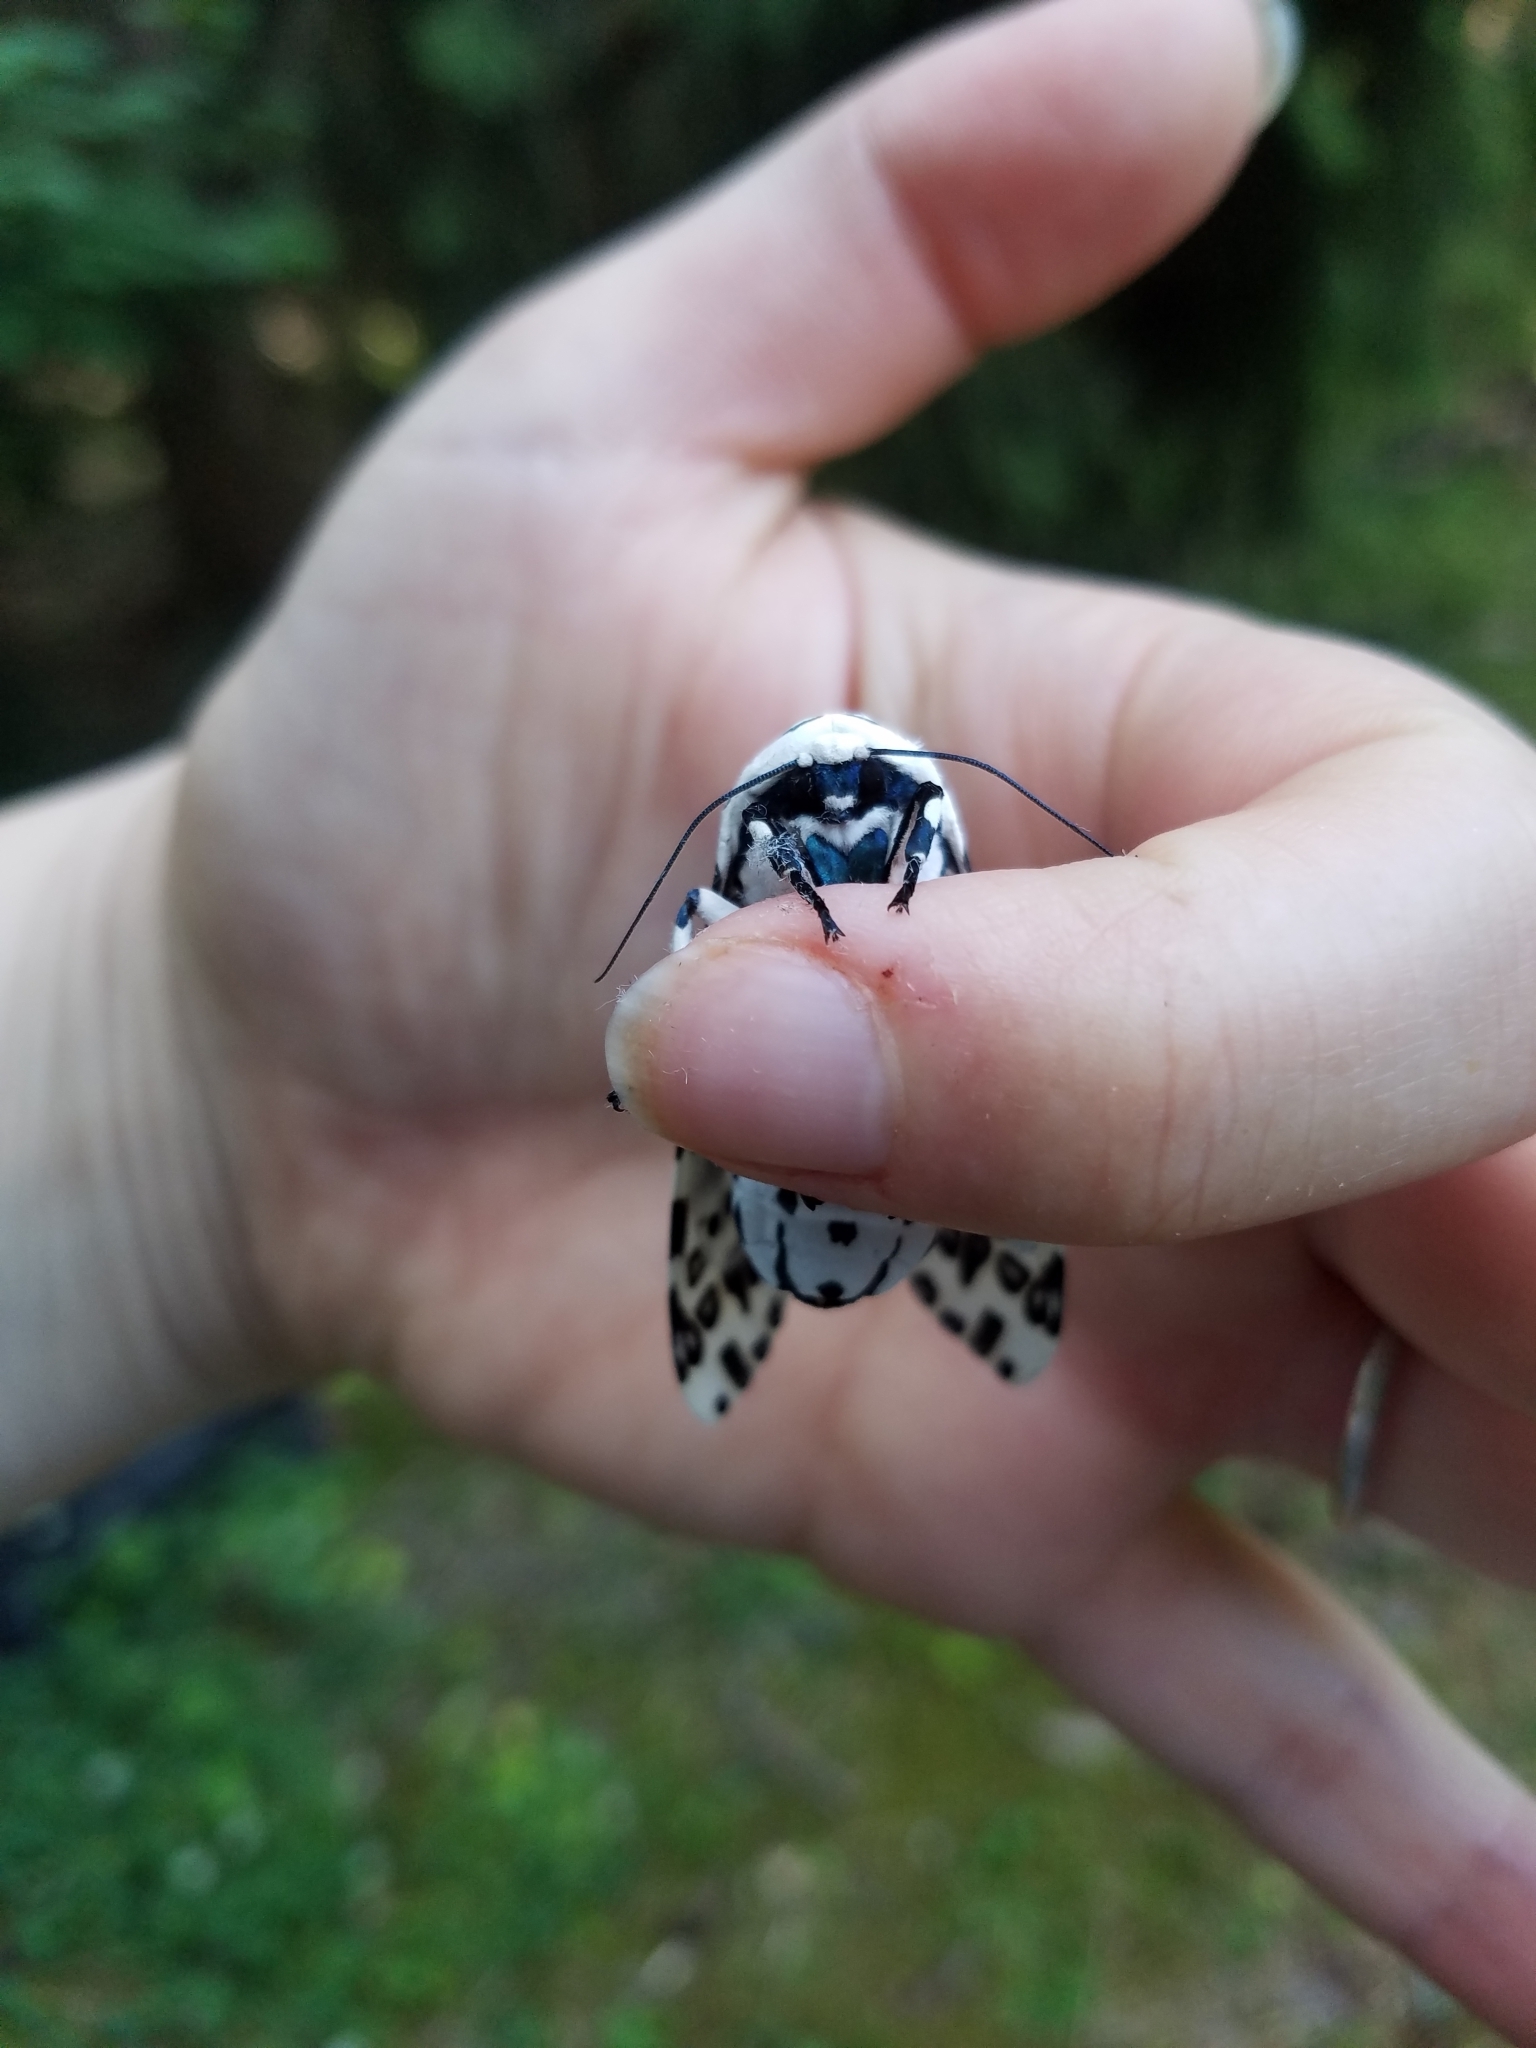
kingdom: Animalia
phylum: Arthropoda
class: Insecta
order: Lepidoptera
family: Erebidae
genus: Hypercompe
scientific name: Hypercompe scribonia
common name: Giant leopard moth
